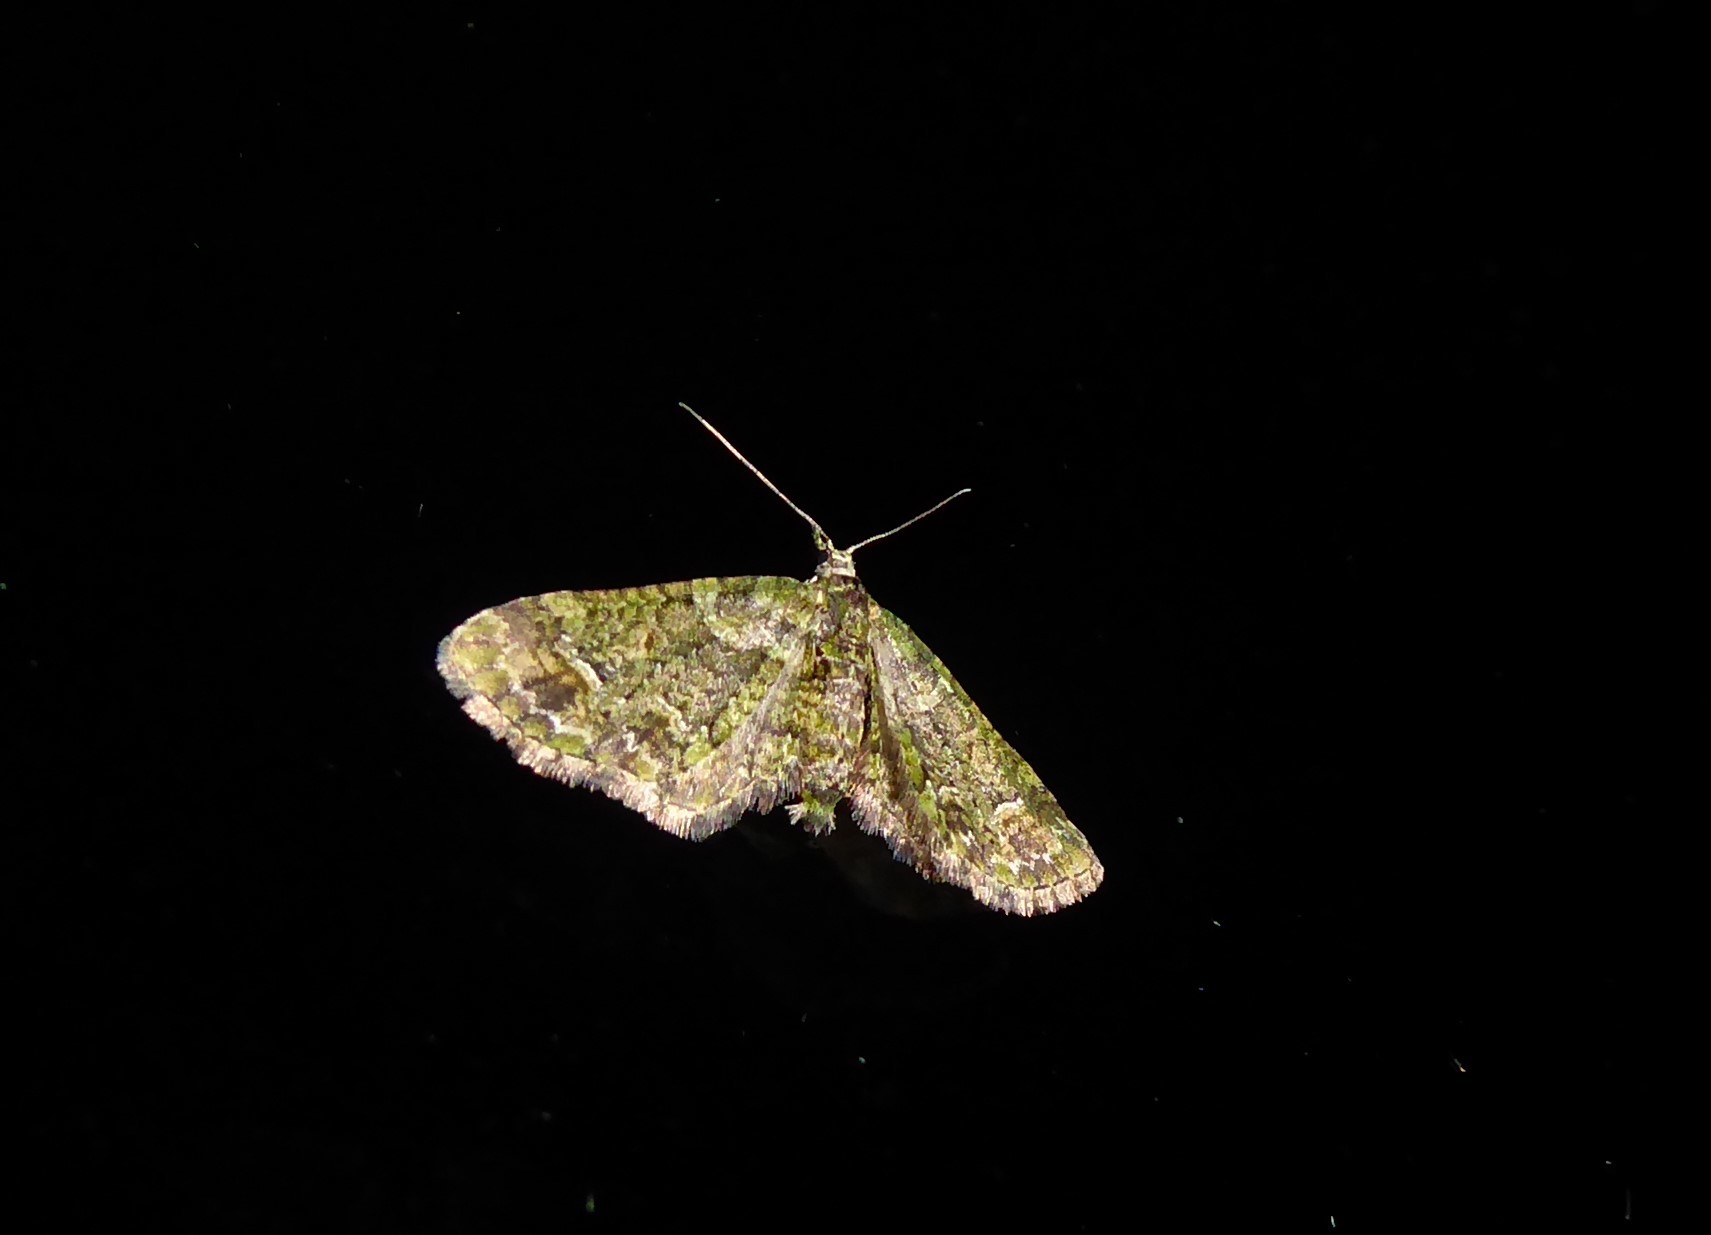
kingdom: Animalia
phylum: Arthropoda
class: Insecta
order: Lepidoptera
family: Geometridae
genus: Idaea
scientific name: Idaea mutanda
